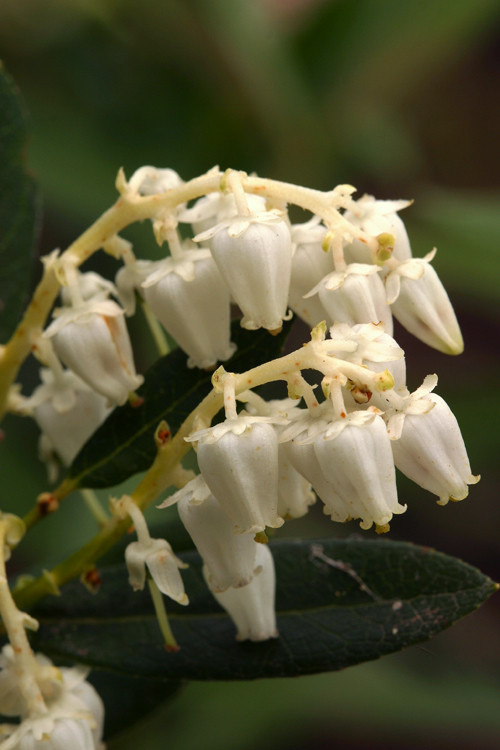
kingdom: Plantae
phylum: Tracheophyta
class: Magnoliopsida
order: Ericales
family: Ericaceae
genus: Leucothoe
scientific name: Leucothoe davisiae
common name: Sierra-laurel
